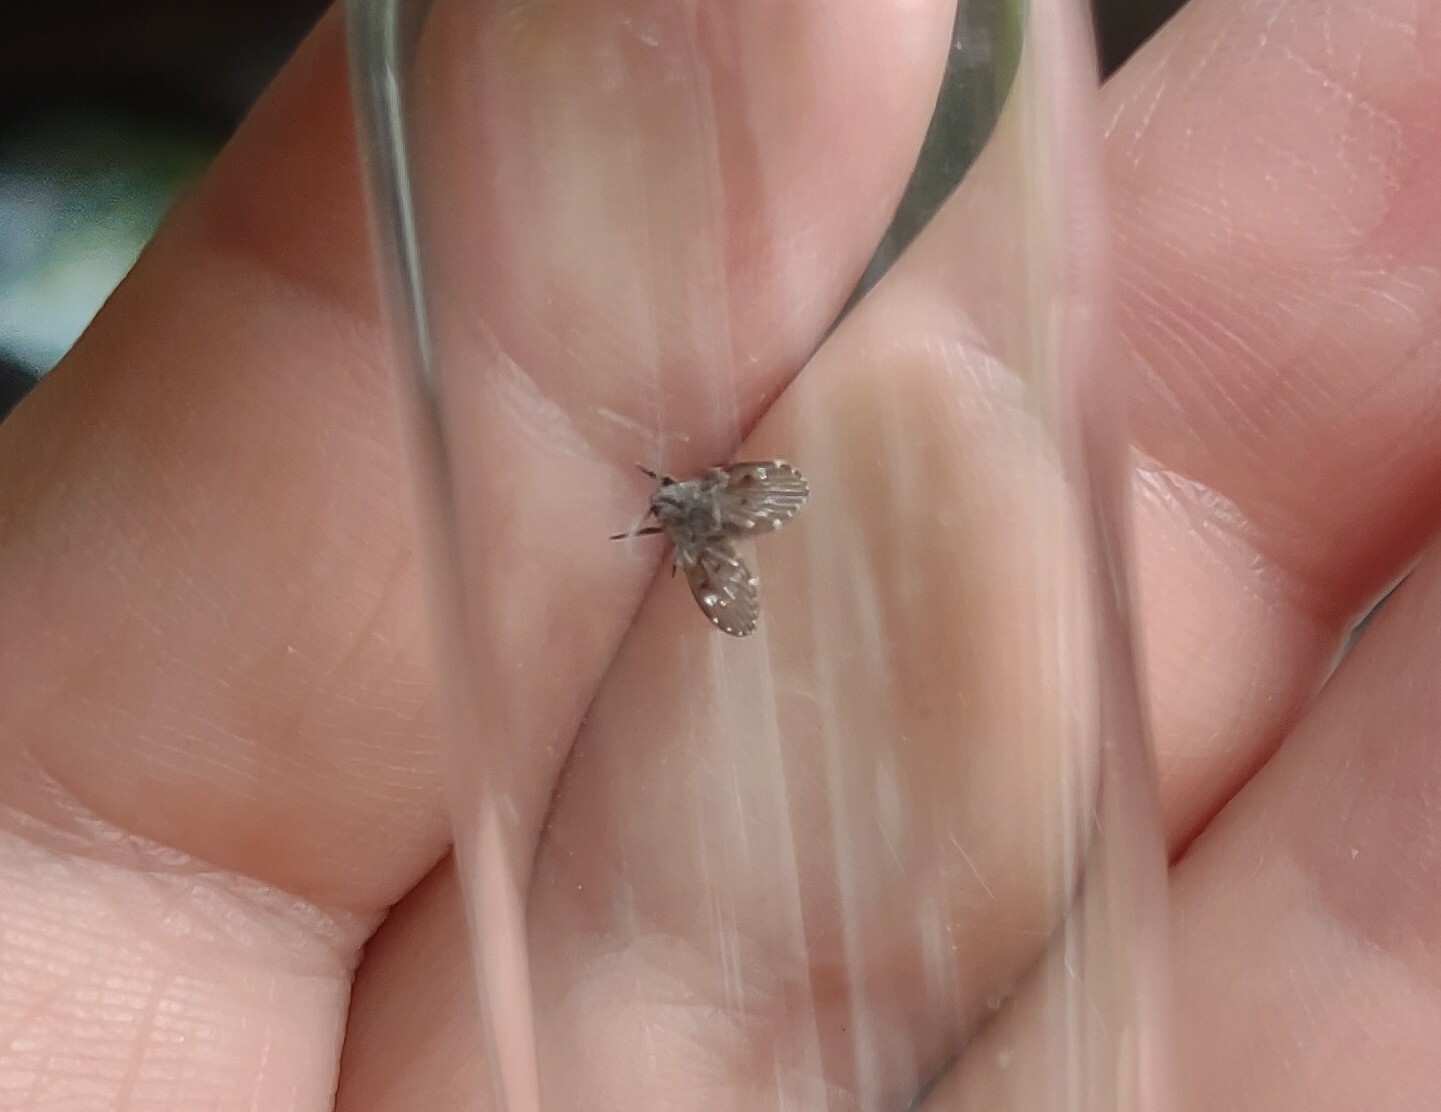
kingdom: Animalia
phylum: Arthropoda
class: Insecta
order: Diptera
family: Psychodidae
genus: Clogmia
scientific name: Clogmia albipunctatus
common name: White-spotted moth fly
